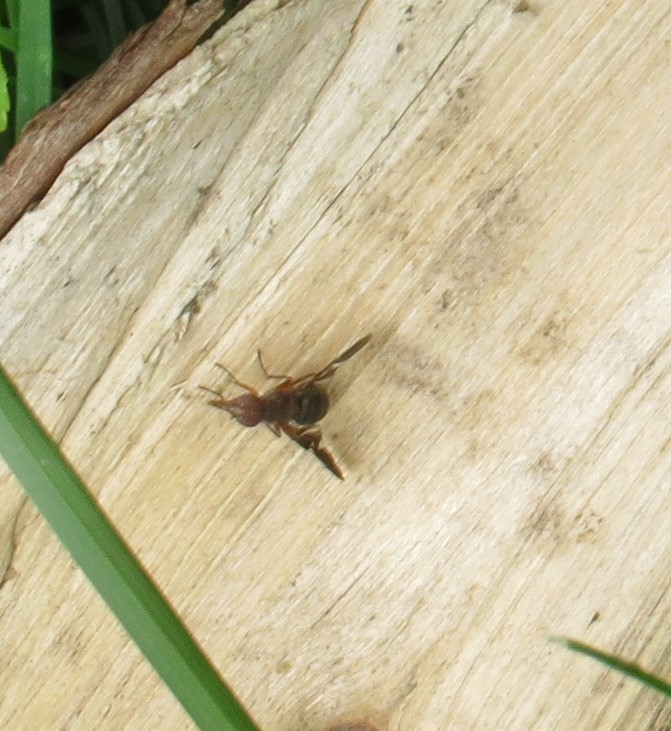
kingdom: Animalia
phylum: Arthropoda
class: Insecta
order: Diptera
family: Ulidiidae
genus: Delphinia
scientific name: Delphinia picta
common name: Common picture-winged fly
